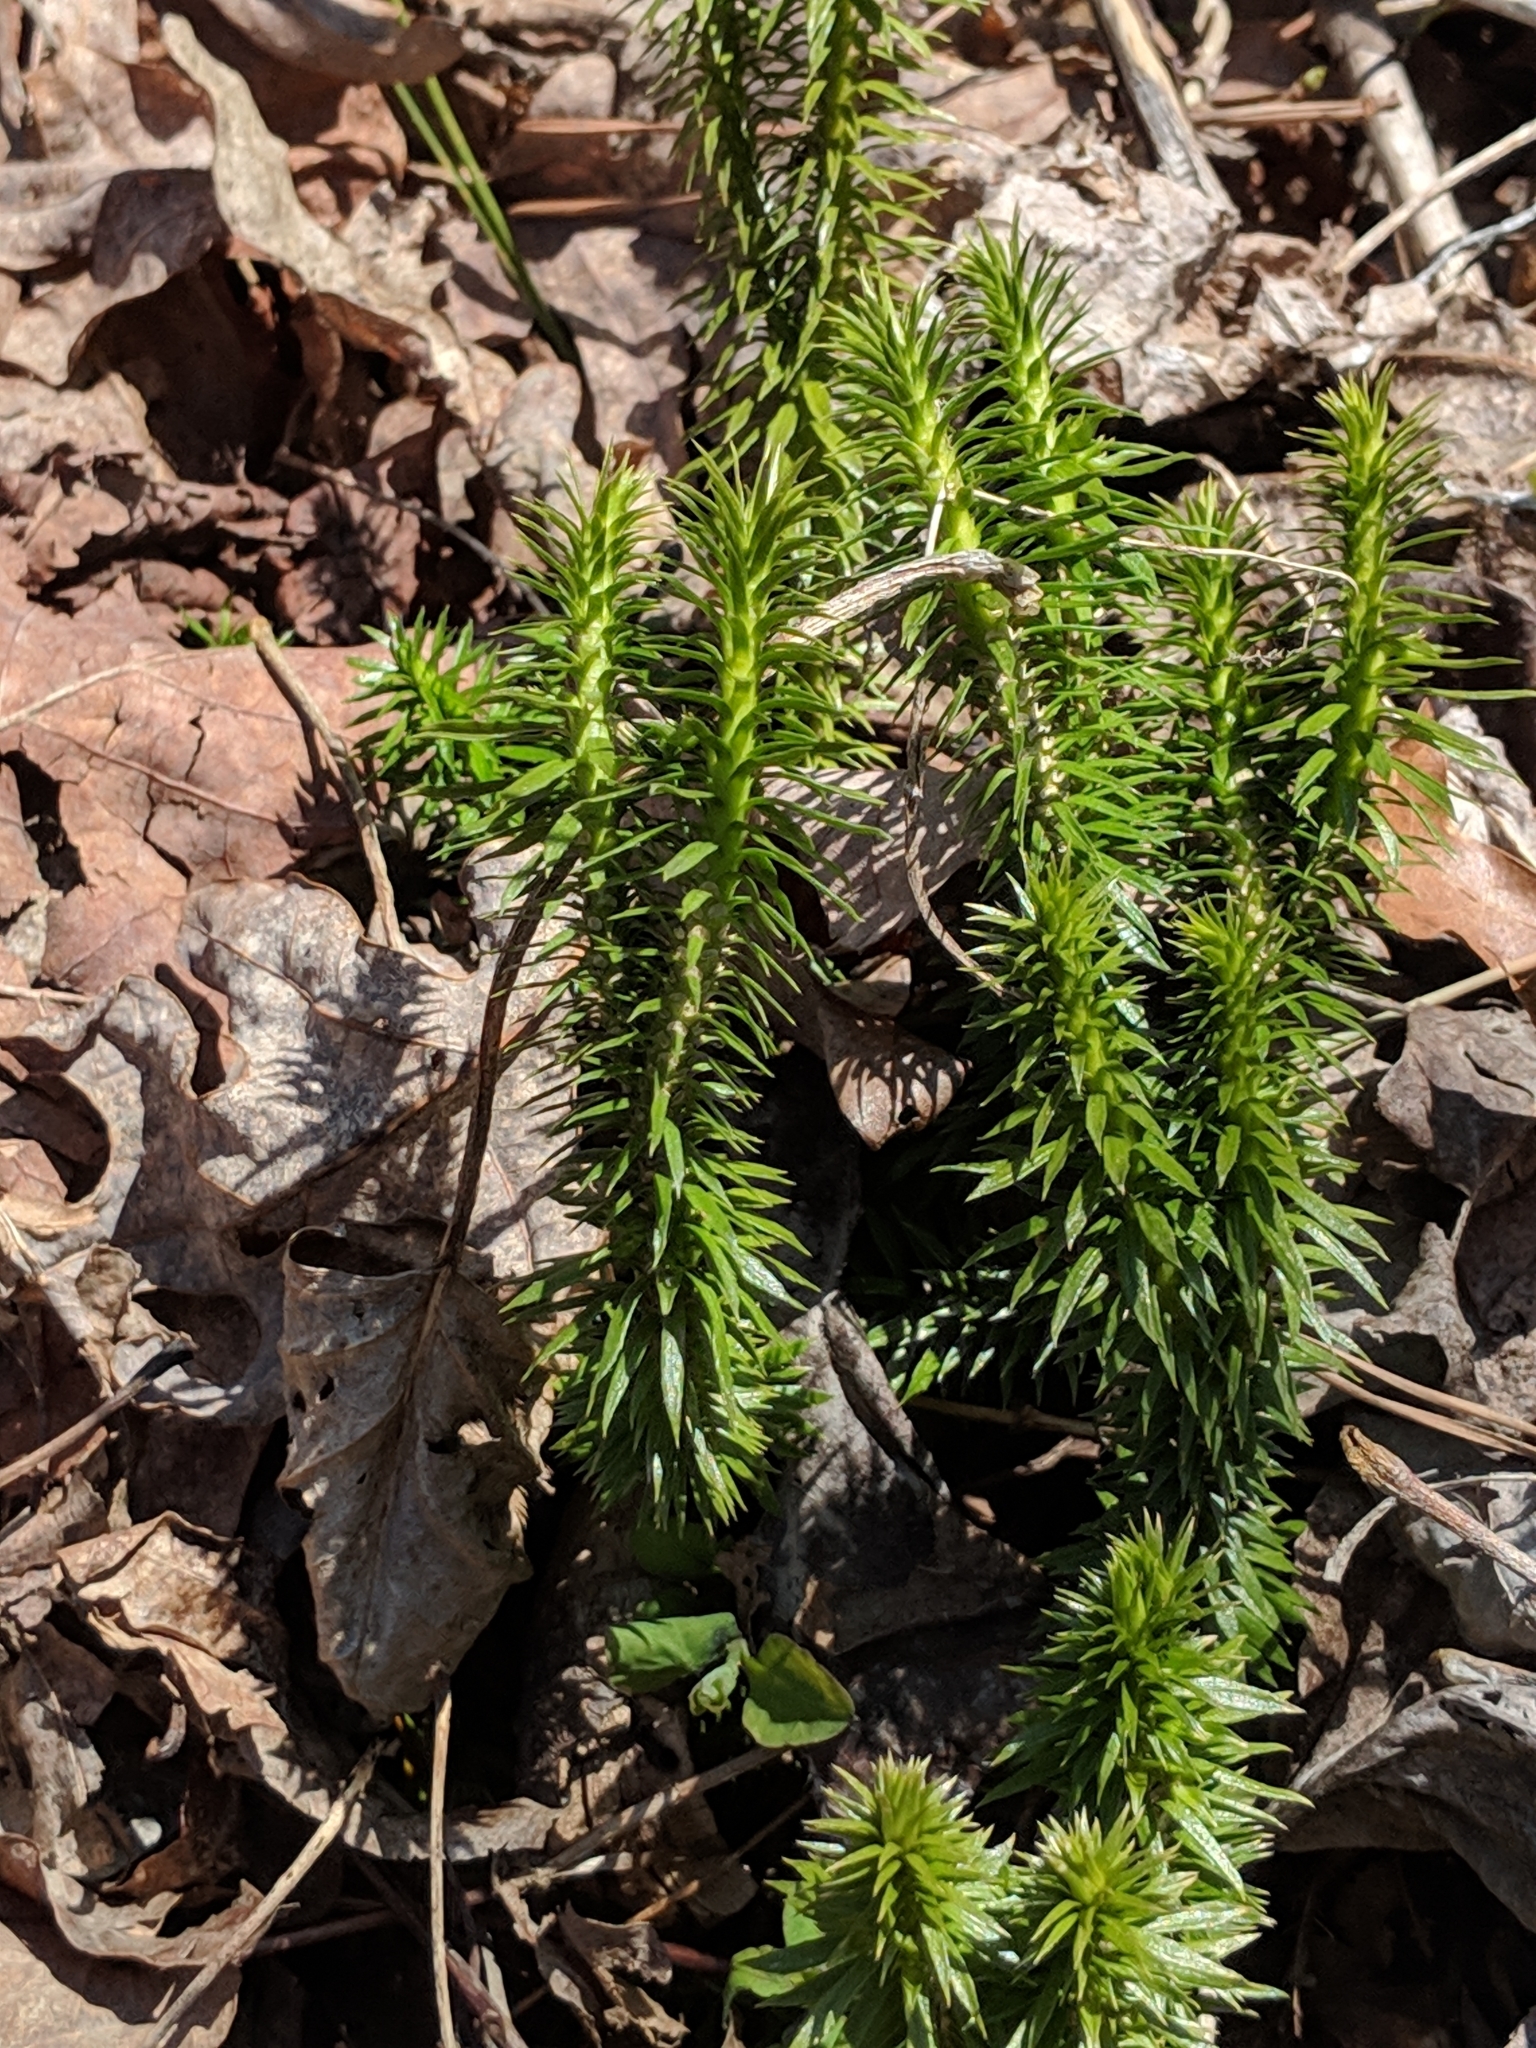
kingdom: Plantae
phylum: Tracheophyta
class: Lycopodiopsida
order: Lycopodiales
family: Lycopodiaceae
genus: Huperzia
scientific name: Huperzia lucidula
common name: Shining clubmoss
